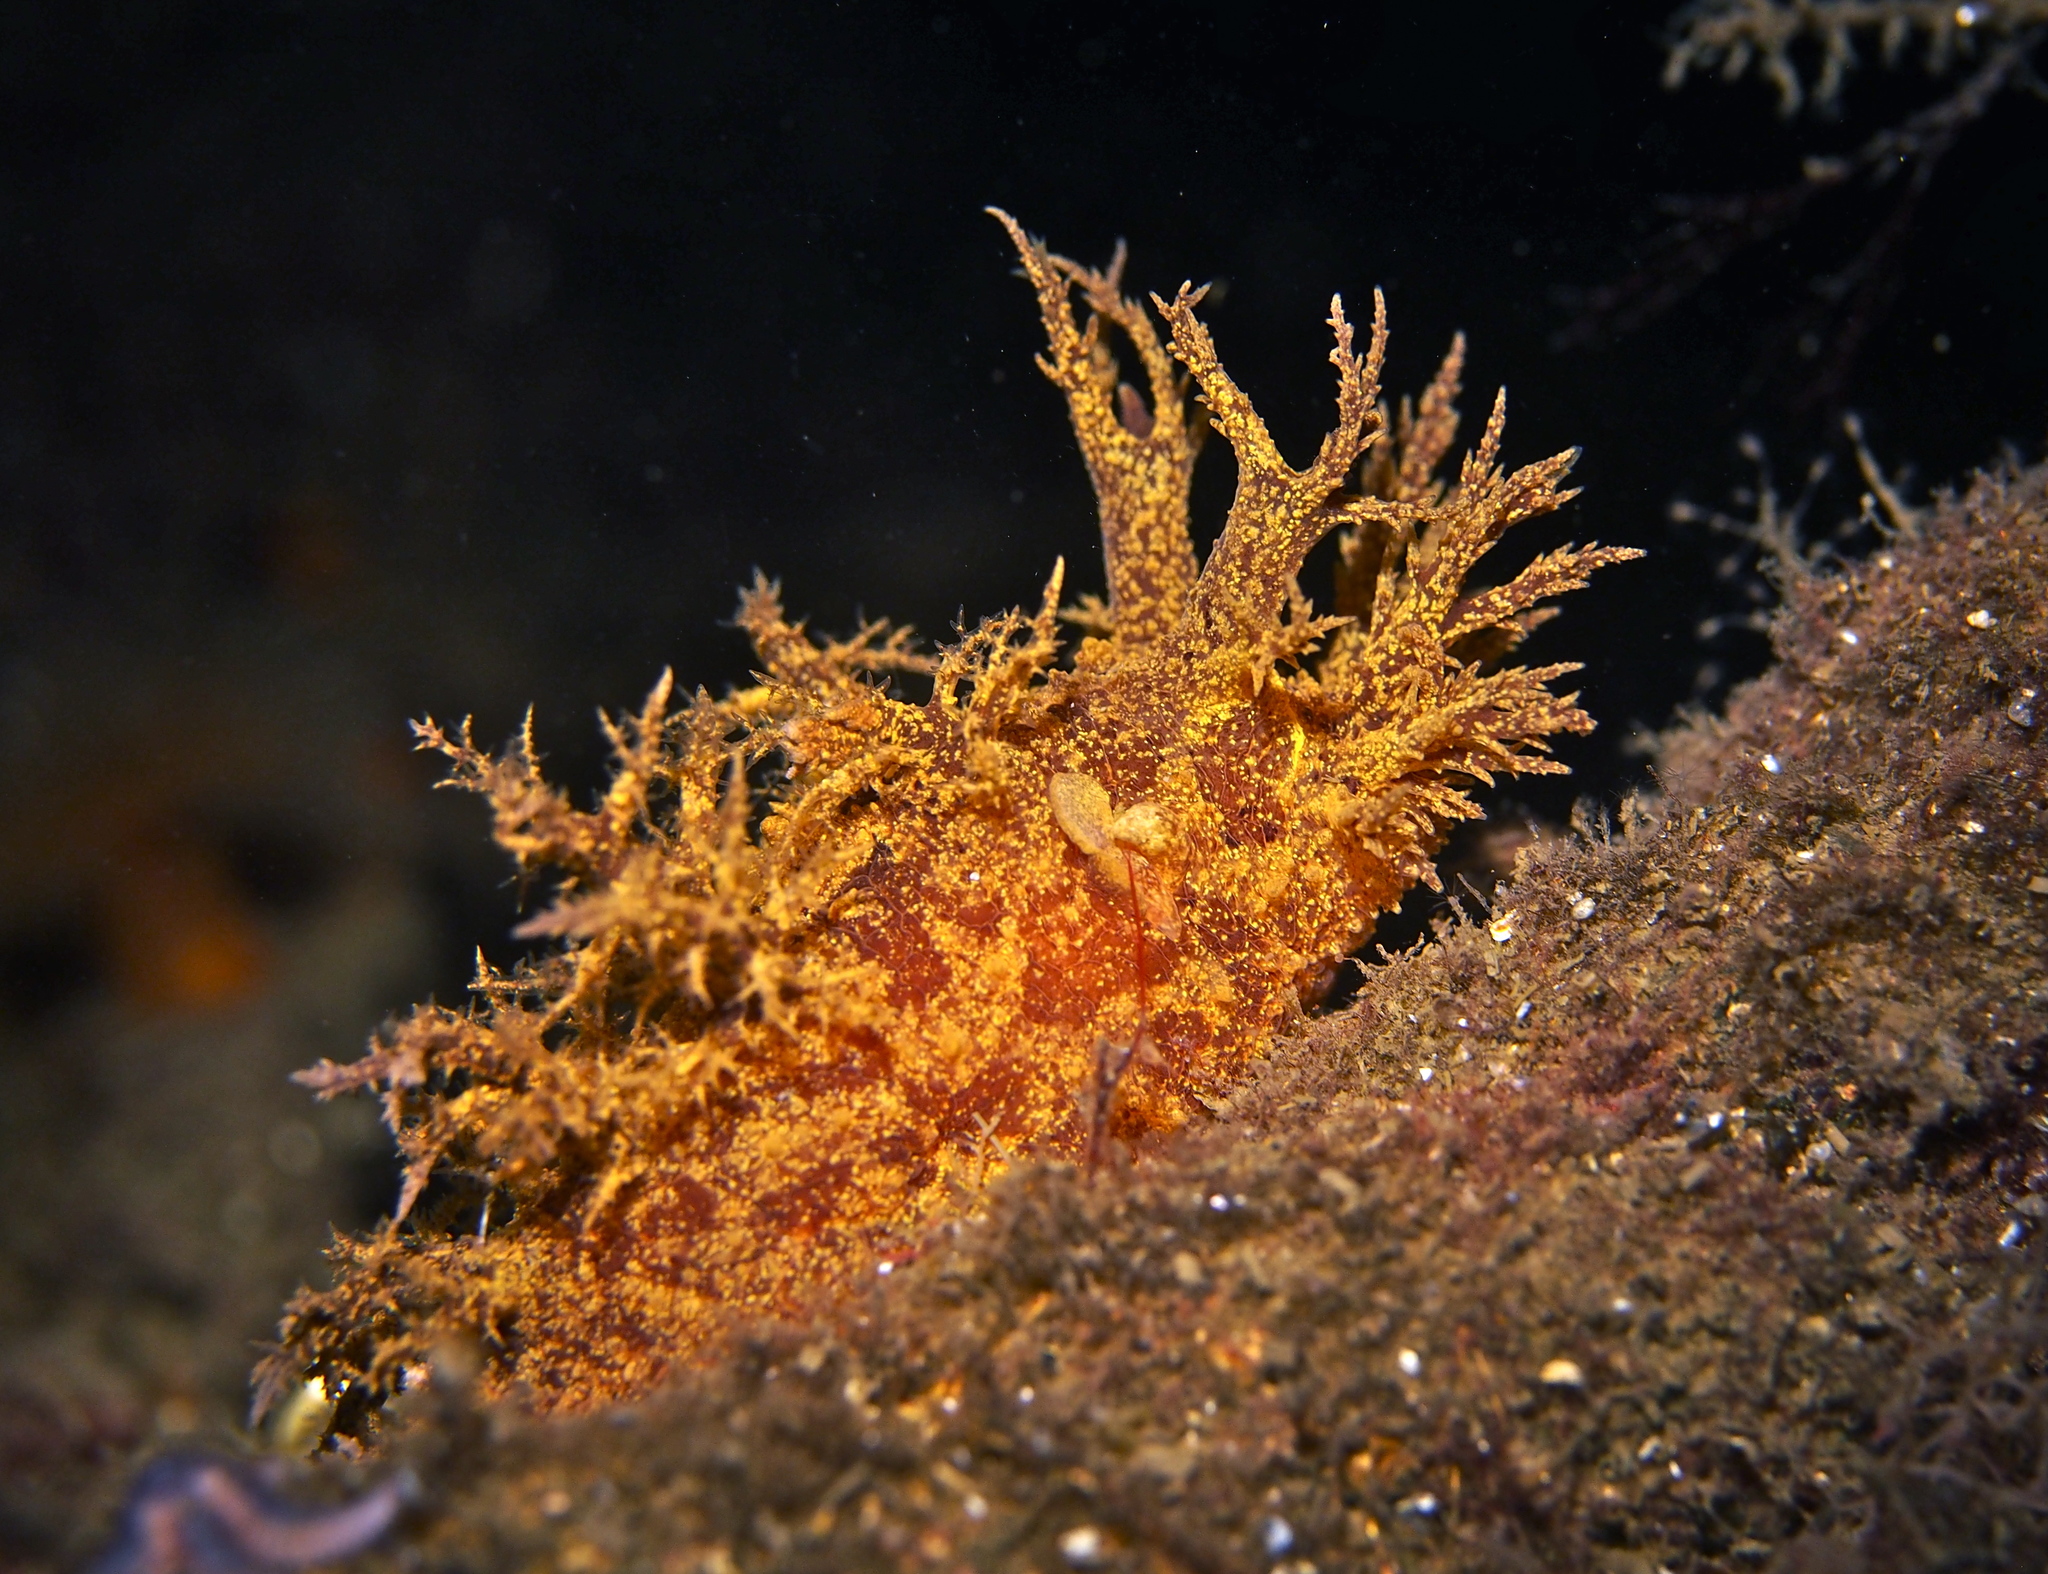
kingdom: Animalia
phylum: Mollusca
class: Gastropoda
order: Nudibranchia
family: Dendronotidae
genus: Dendronotus
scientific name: Dendronotus europaeus
